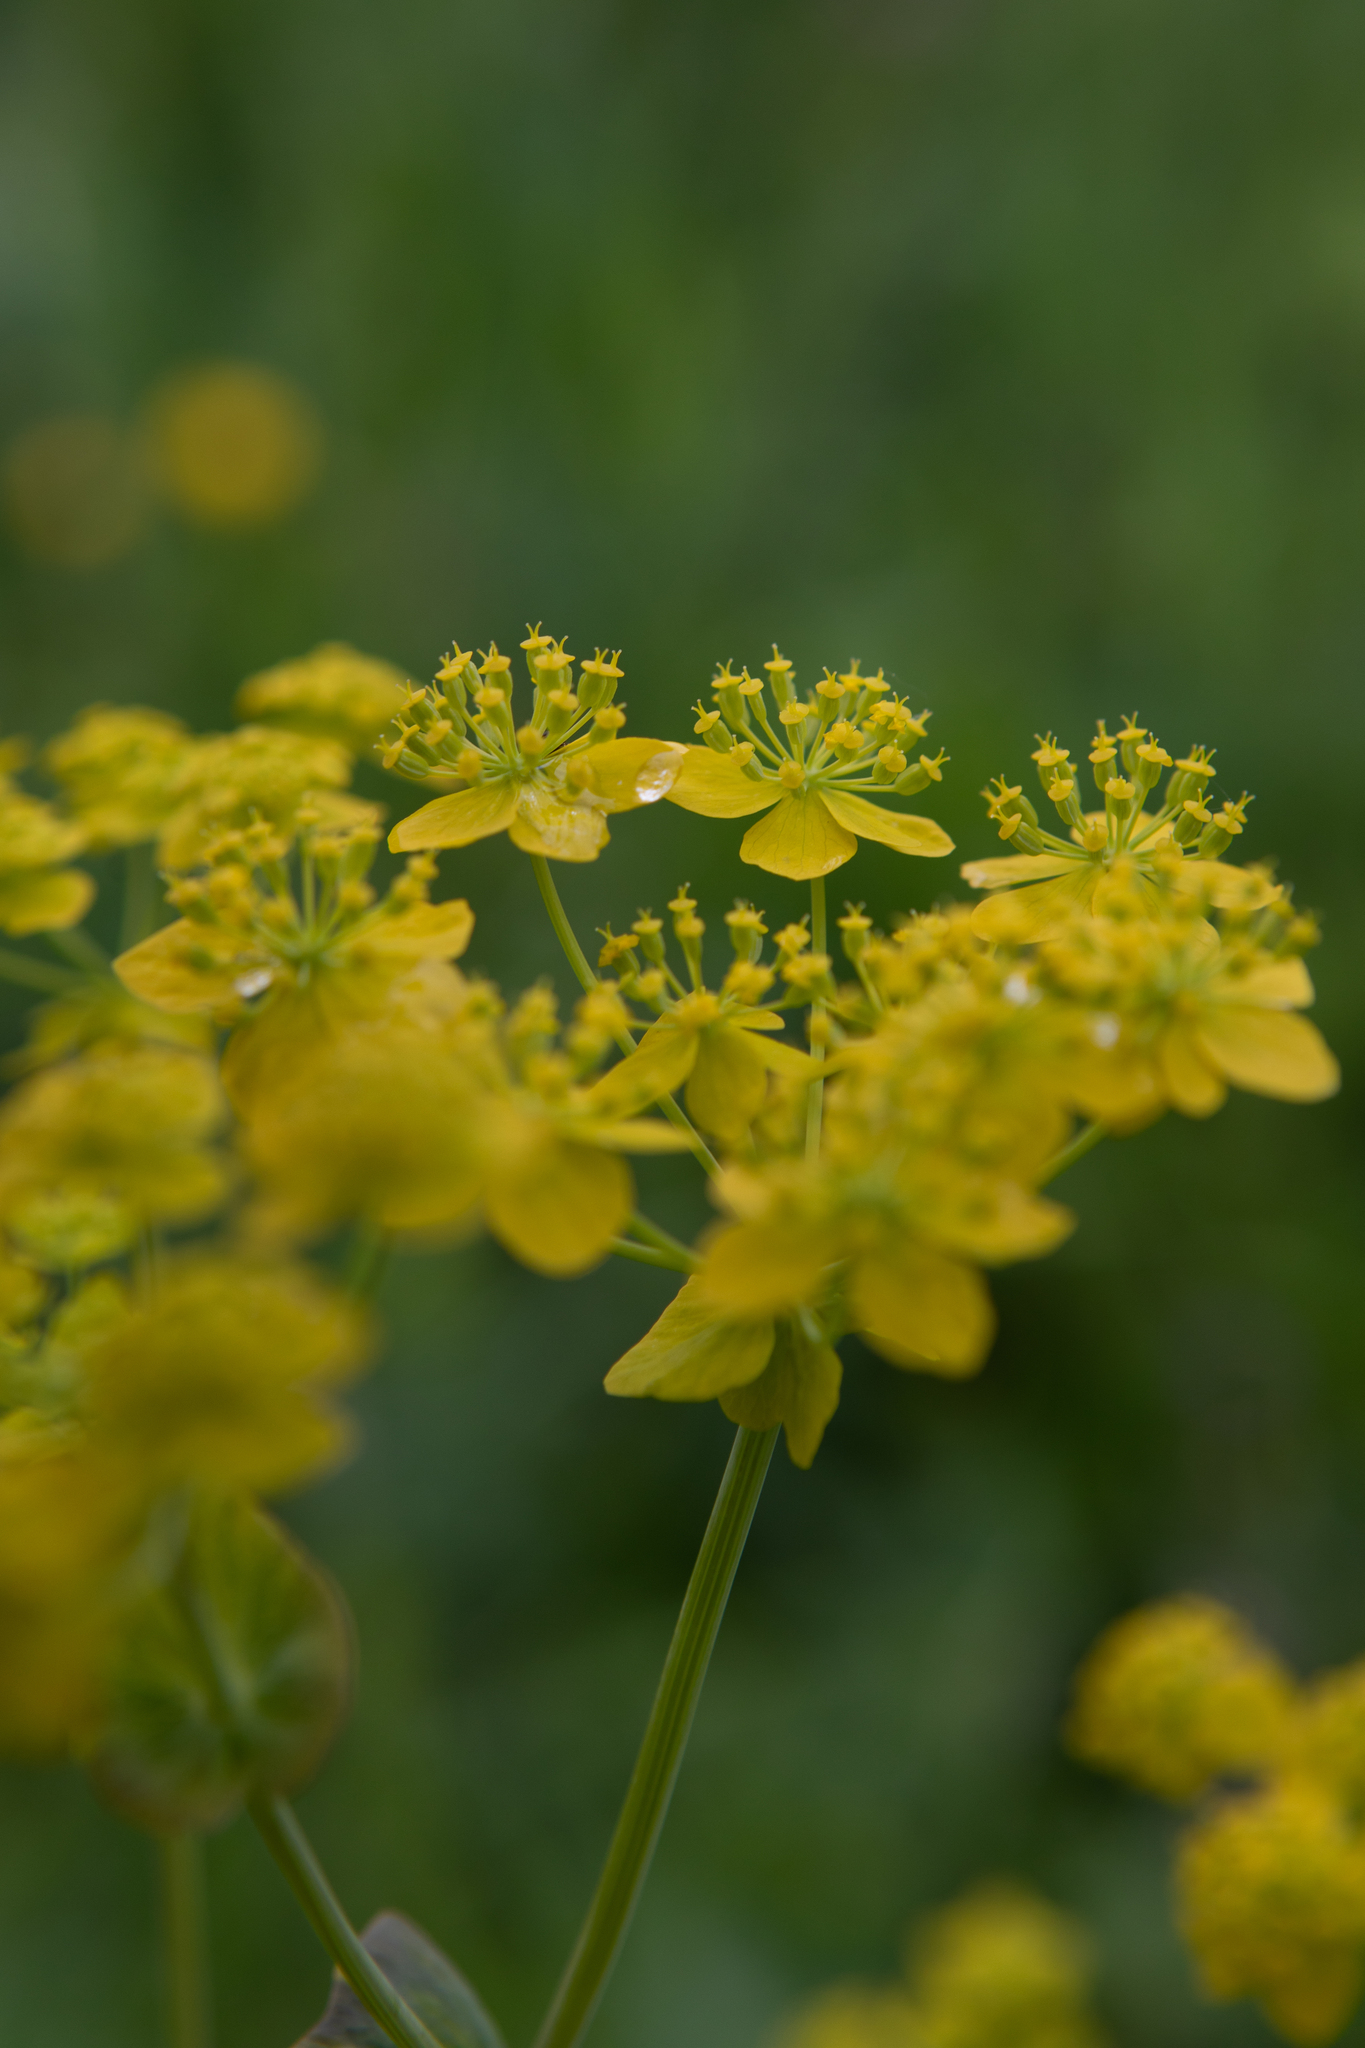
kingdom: Plantae
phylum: Tracheophyta
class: Magnoliopsida
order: Apiales
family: Apiaceae
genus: Bupleurum
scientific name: Bupleurum aureum
